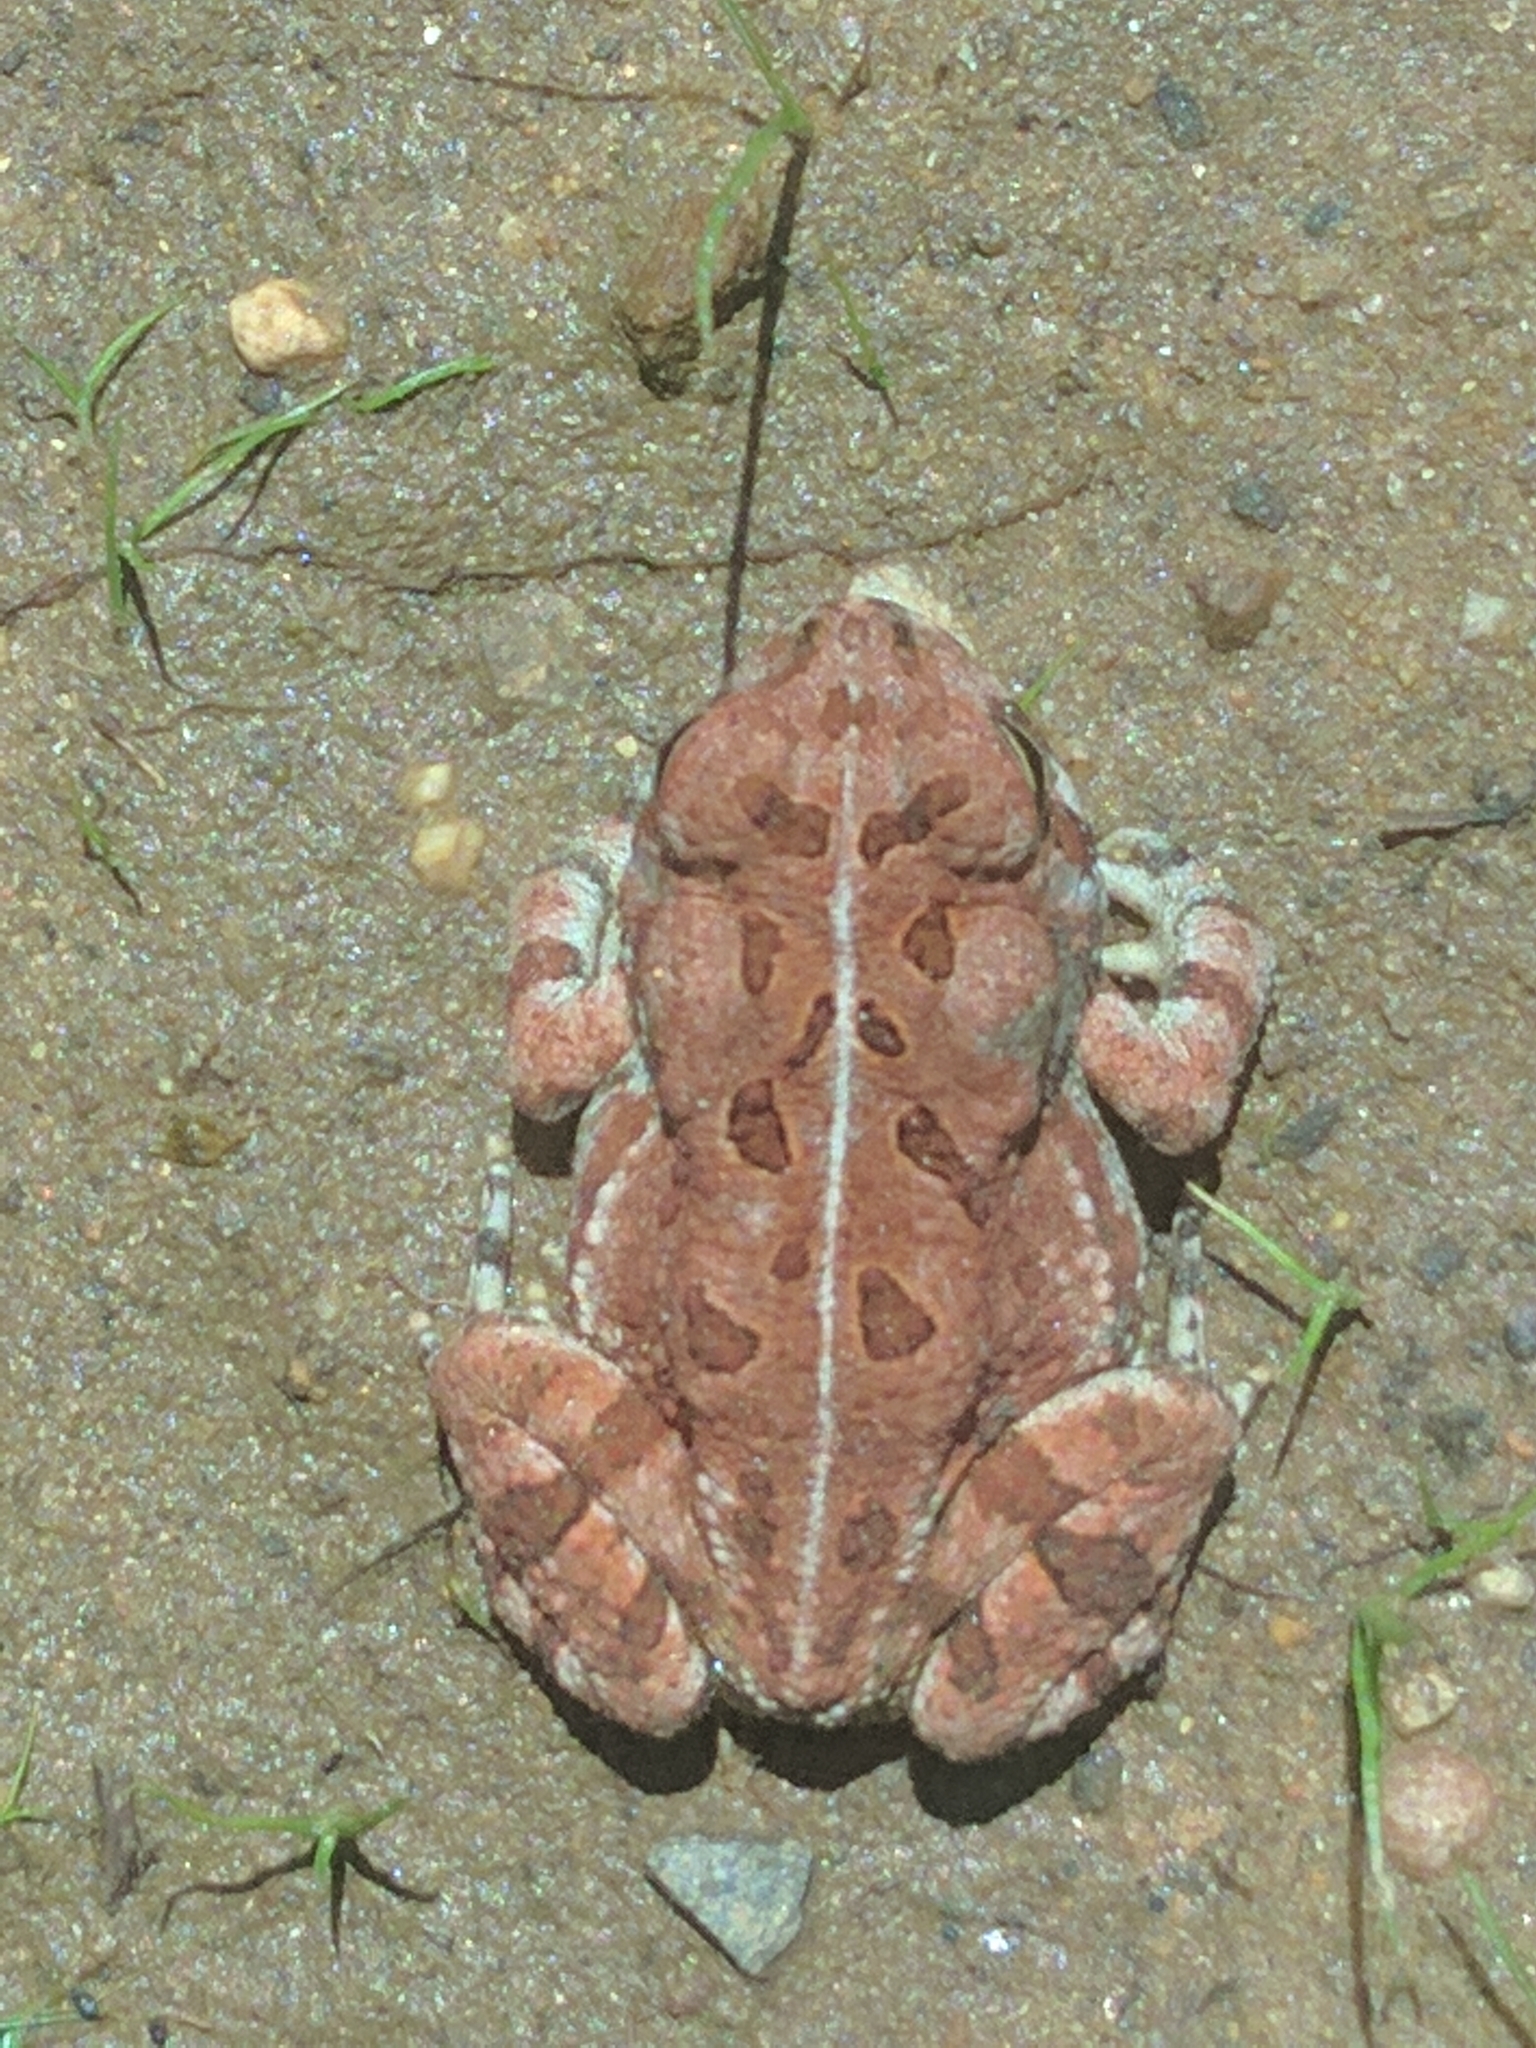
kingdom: Animalia
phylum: Chordata
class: Amphibia
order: Anura
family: Bufonidae
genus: Anaxyrus
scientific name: Anaxyrus fowleri
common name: Fowler's toad
